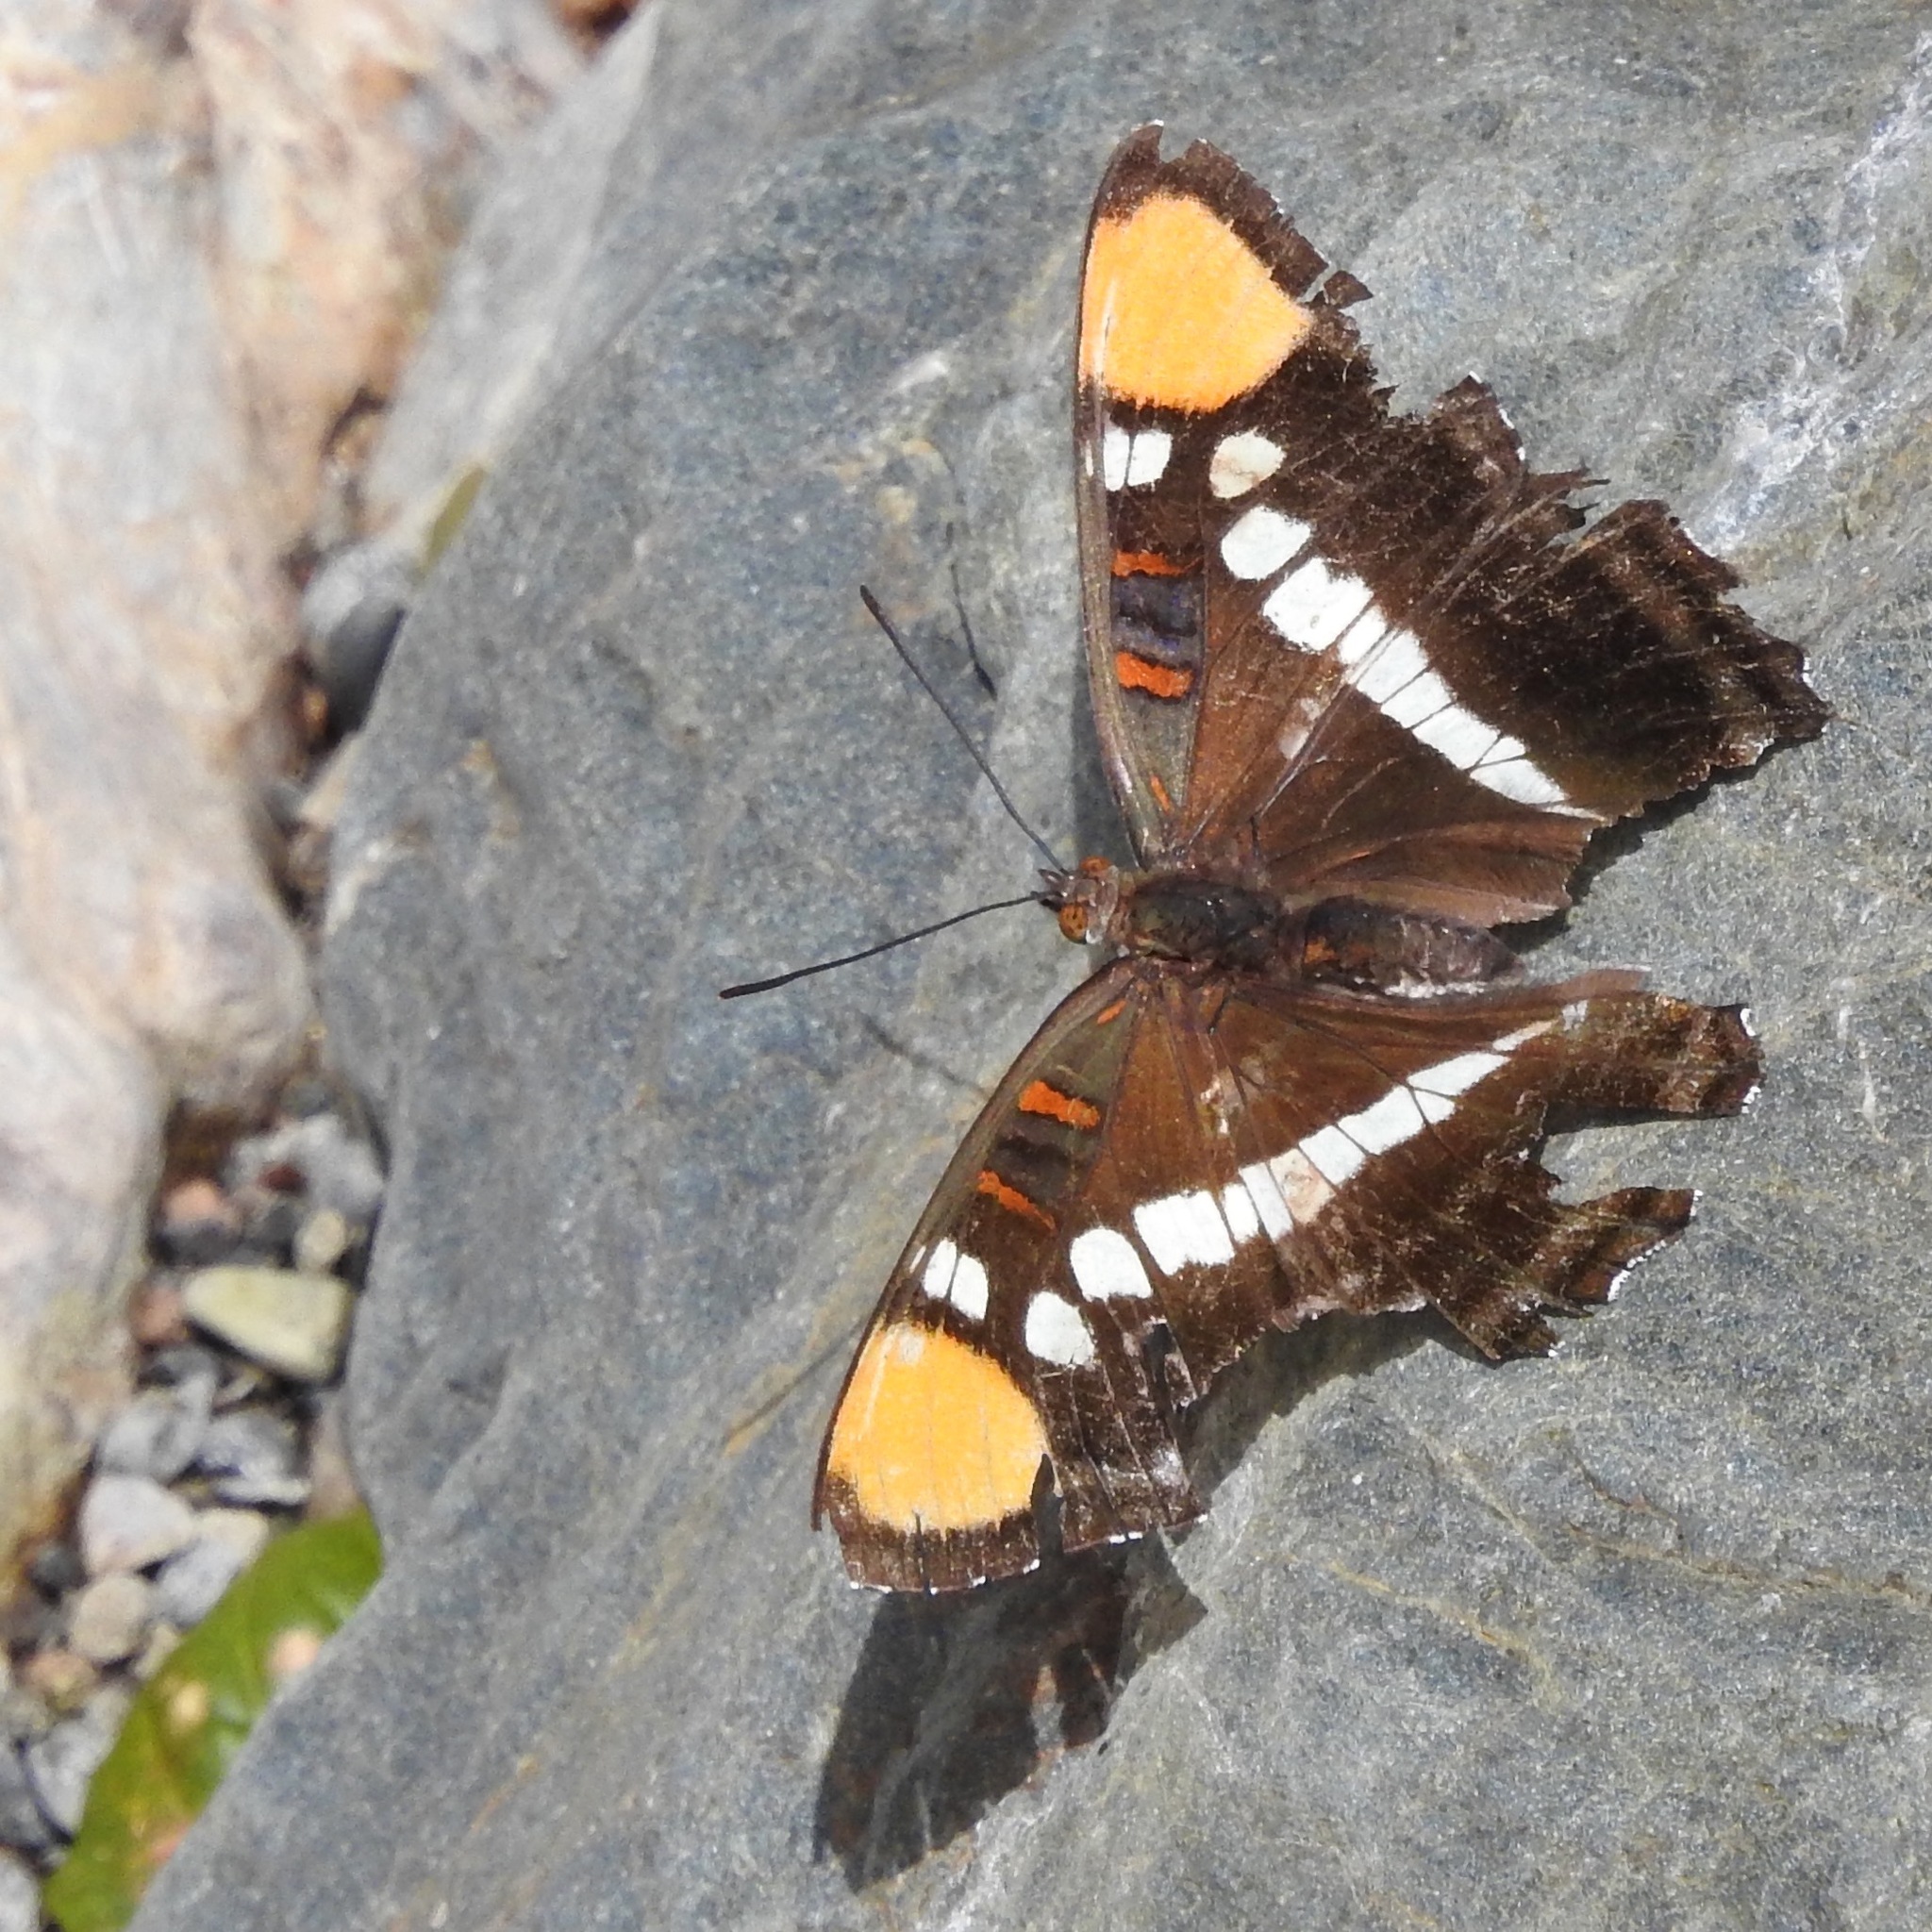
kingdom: Animalia
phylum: Arthropoda
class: Insecta
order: Lepidoptera
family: Nymphalidae
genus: Limenitis
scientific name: Limenitis bredowii
